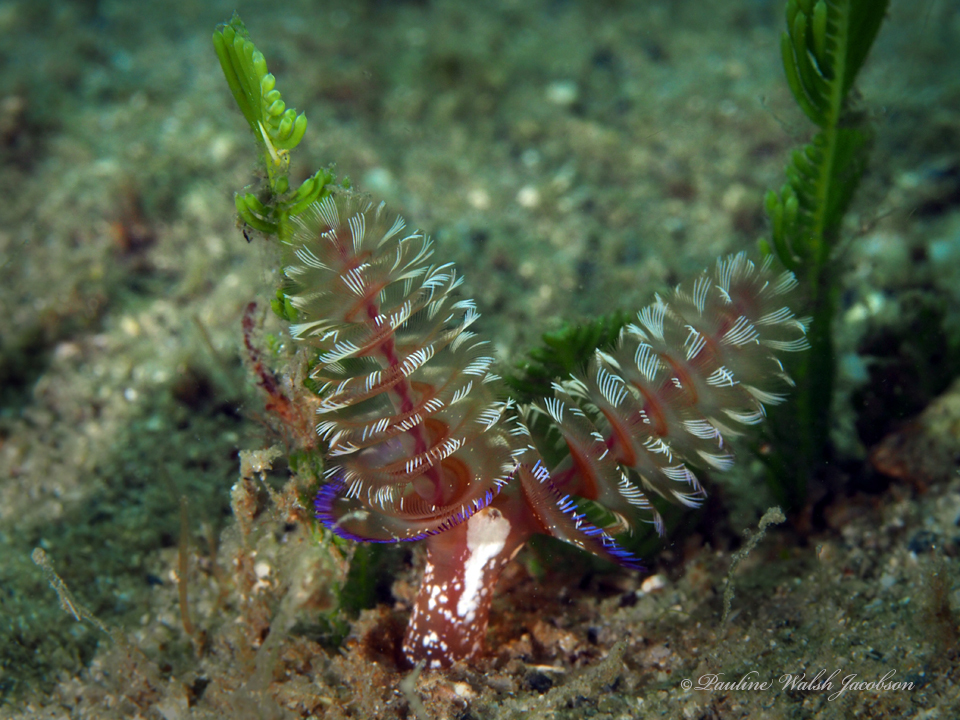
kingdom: Animalia
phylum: Phoronida
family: Phoronidae
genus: Phoronopsis
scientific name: Phoronopsis californica
